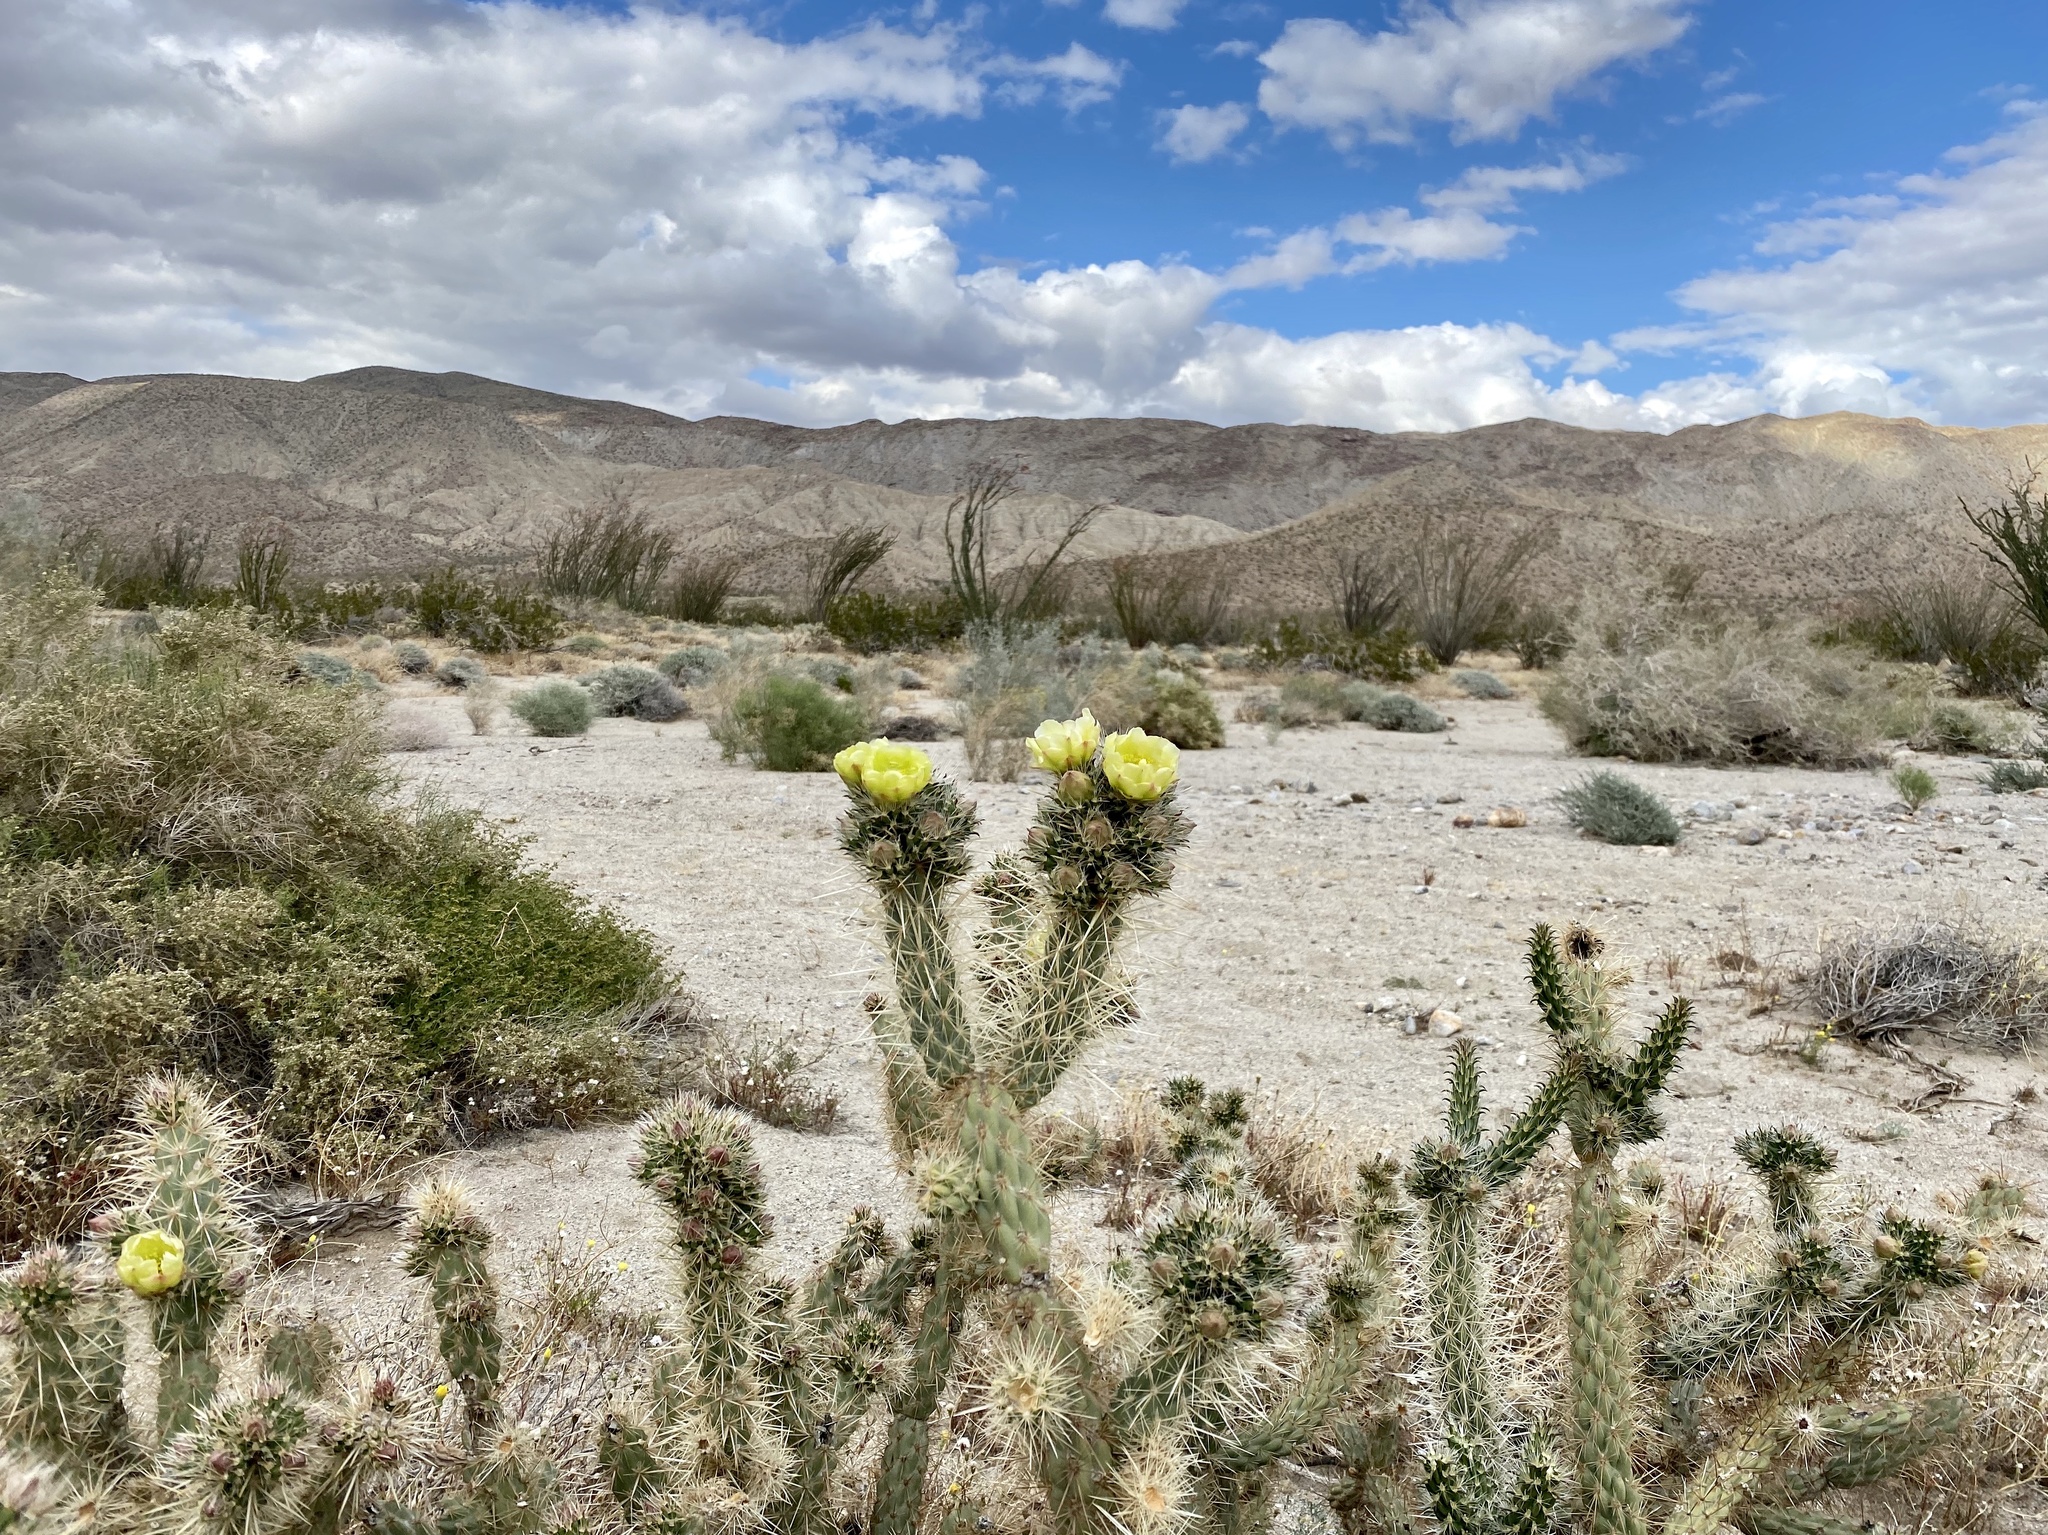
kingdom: Plantae
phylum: Tracheophyta
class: Magnoliopsida
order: Caryophyllales
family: Cactaceae
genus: Cylindropuntia
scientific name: Cylindropuntia ganderi
